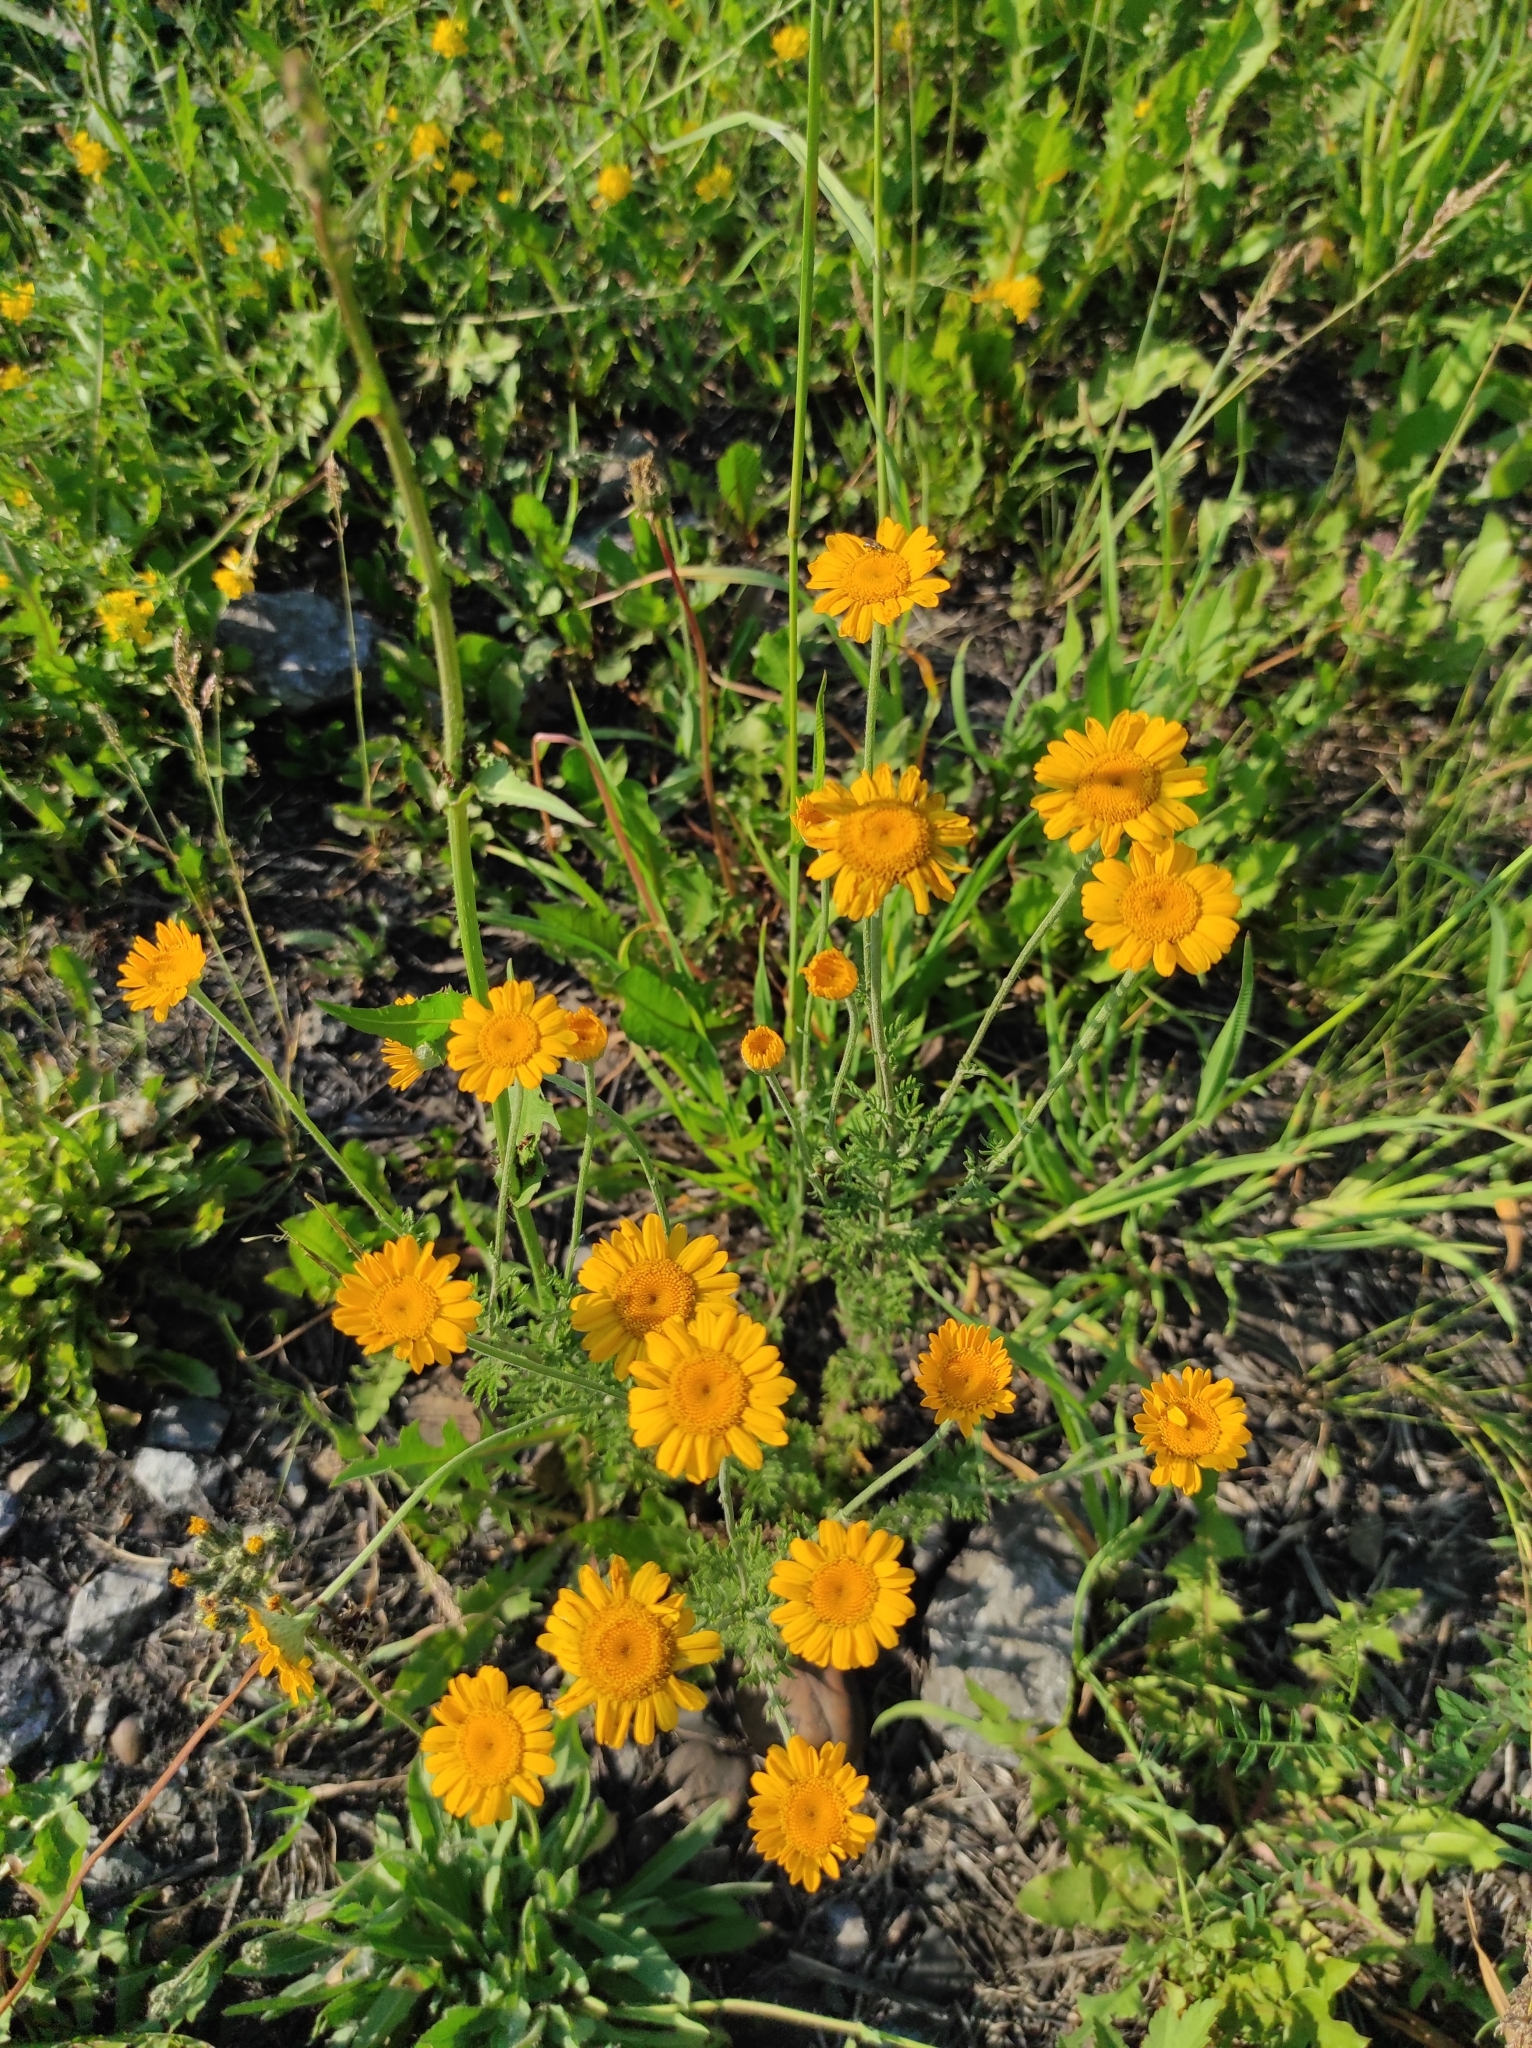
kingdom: Plantae
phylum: Tracheophyta
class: Magnoliopsida
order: Asterales
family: Asteraceae
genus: Cota
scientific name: Cota tinctoria
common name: Golden chamomile
